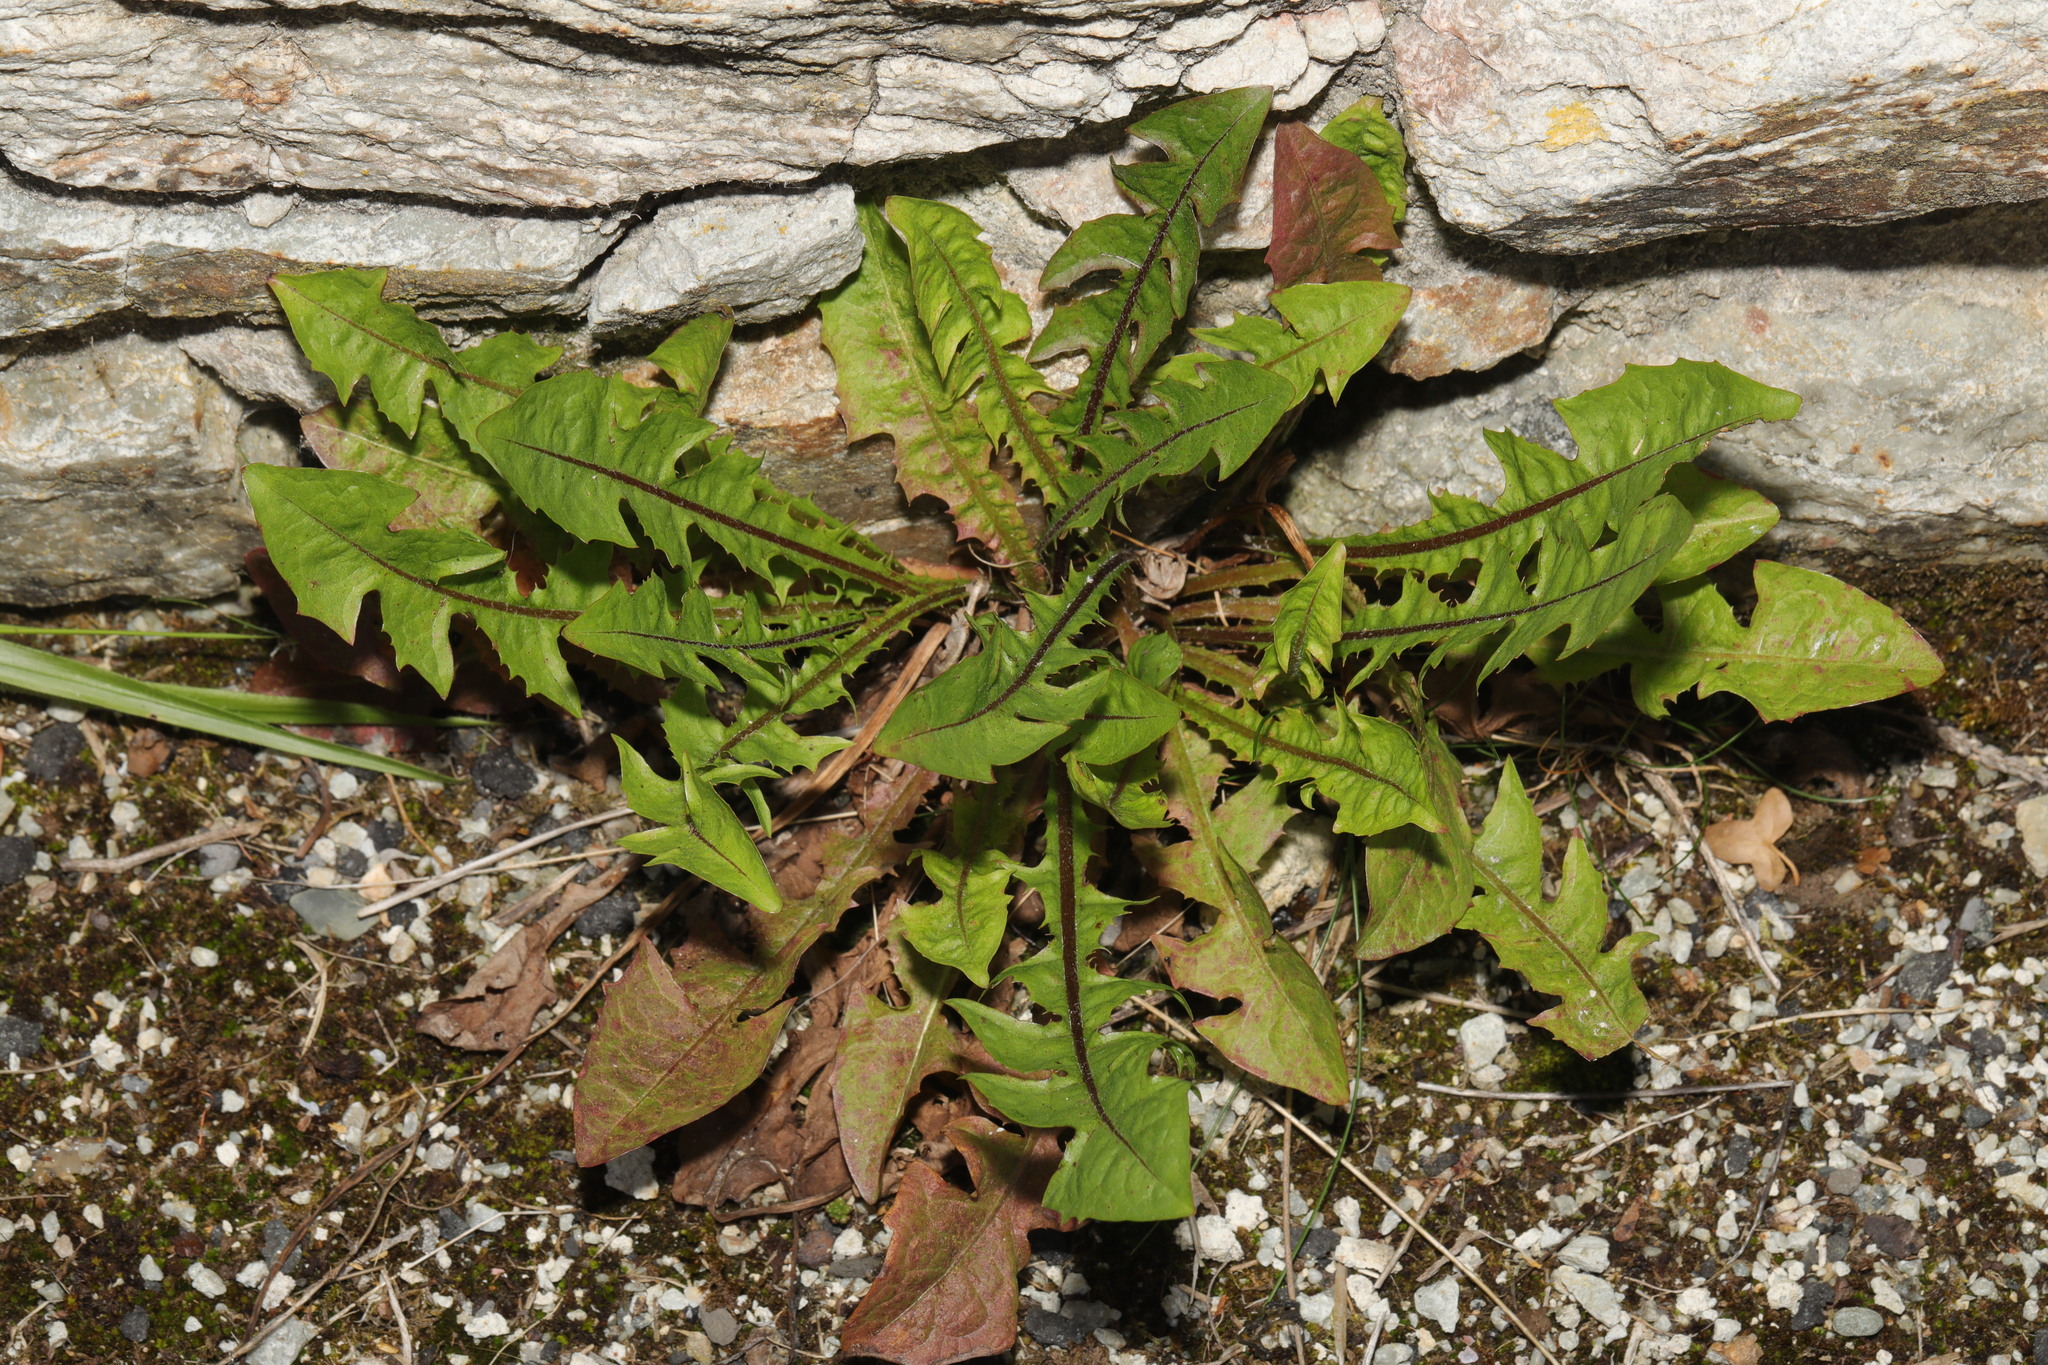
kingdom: Plantae
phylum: Tracheophyta
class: Magnoliopsida
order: Asterales
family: Asteraceae
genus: Taraxacum
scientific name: Taraxacum officinale
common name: Common dandelion
